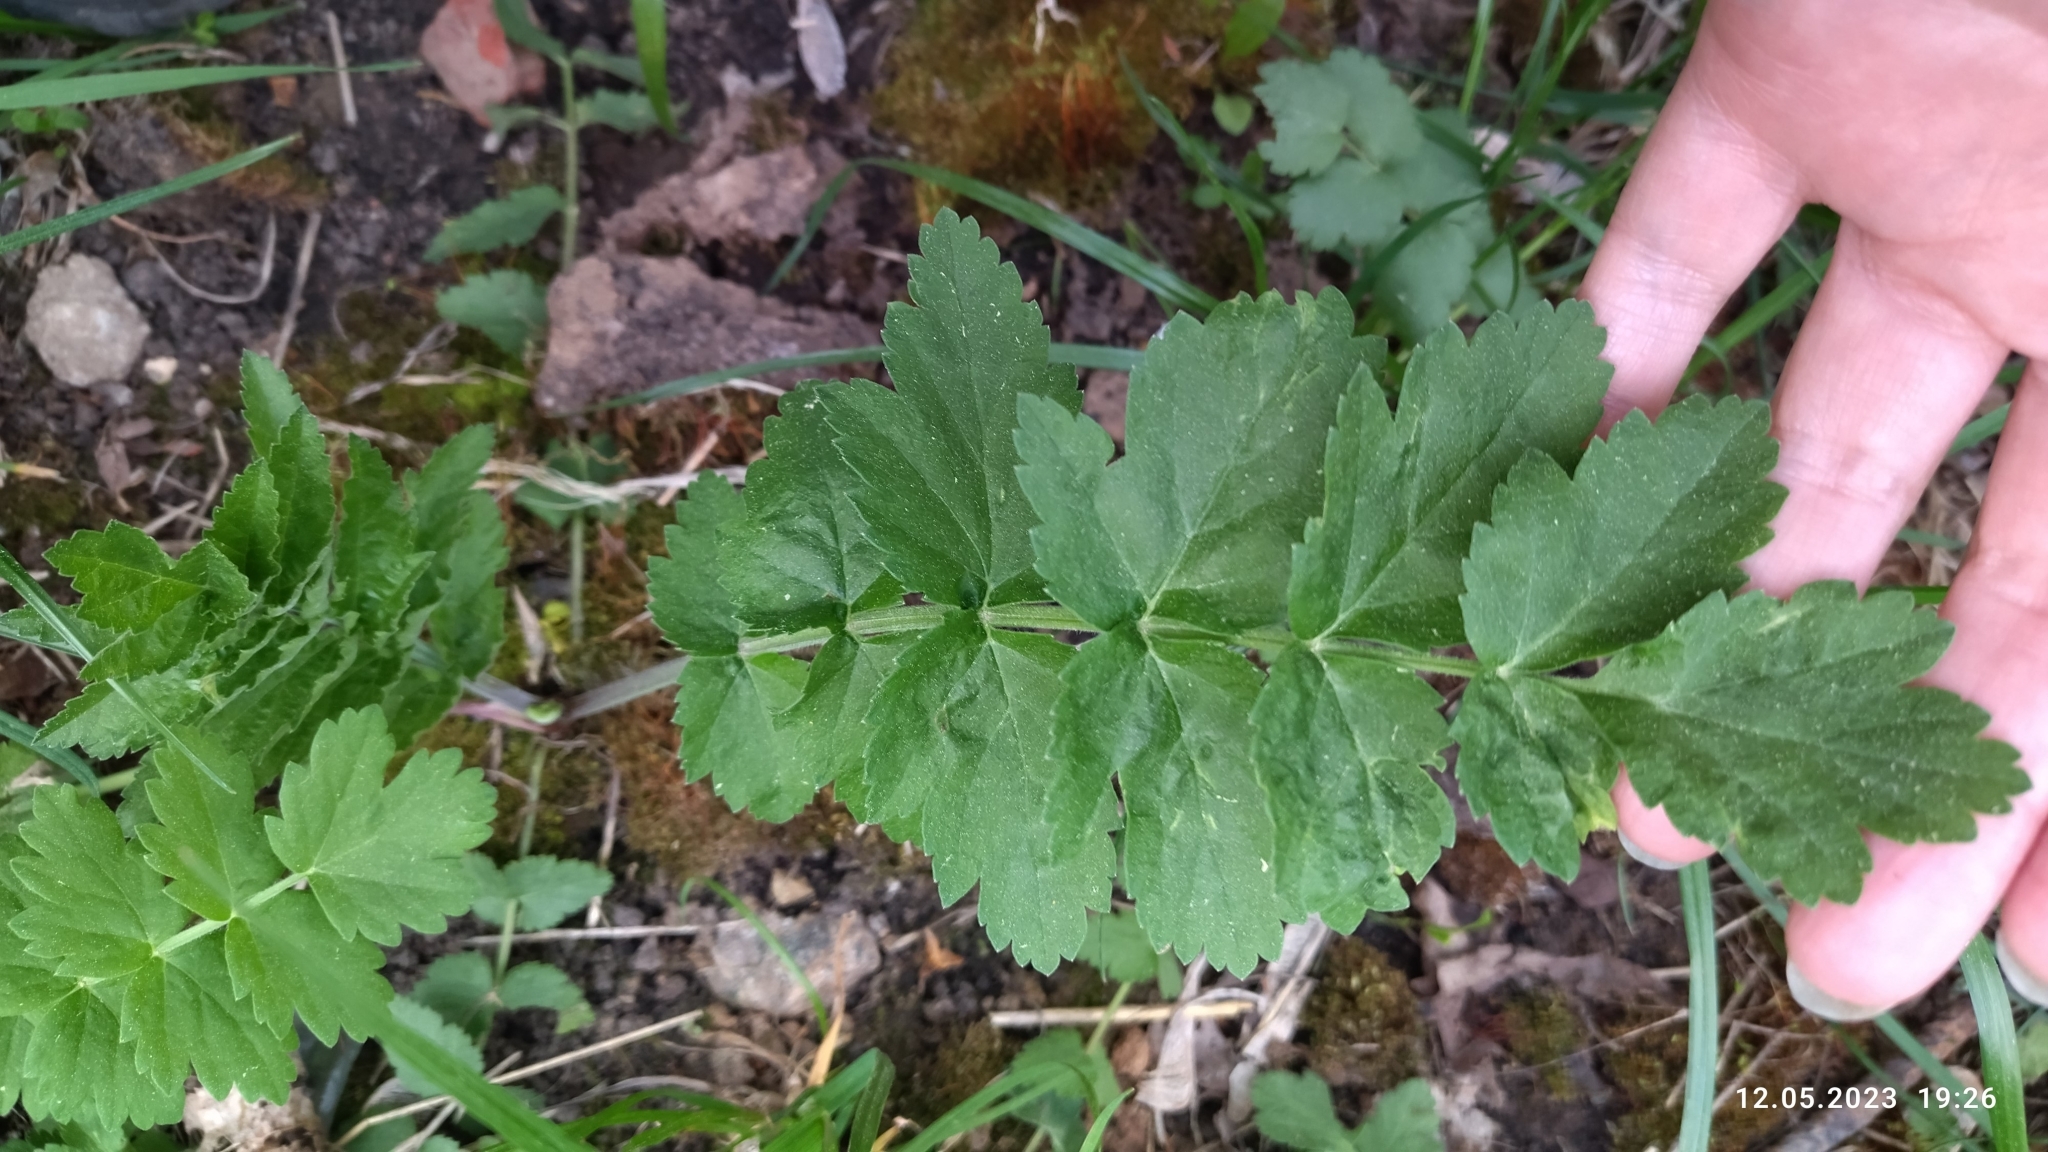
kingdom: Plantae
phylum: Tracheophyta
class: Magnoliopsida
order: Apiales
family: Apiaceae
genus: Pimpinella
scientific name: Pimpinella saxifraga
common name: Burnet-saxifrage
